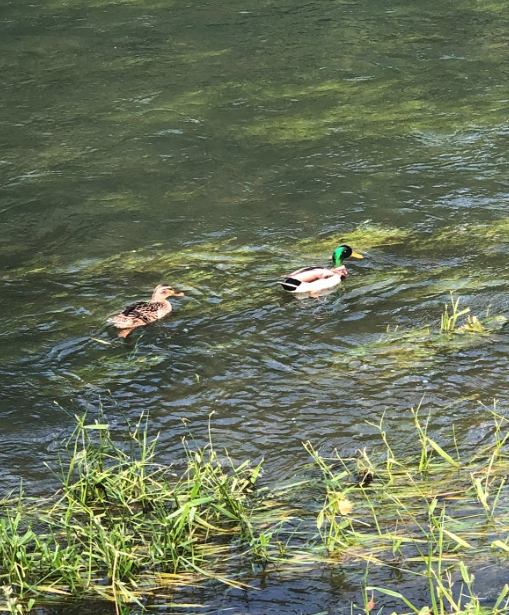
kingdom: Animalia
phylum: Chordata
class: Aves
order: Anseriformes
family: Anatidae
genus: Anas
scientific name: Anas platyrhynchos
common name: Mallard
